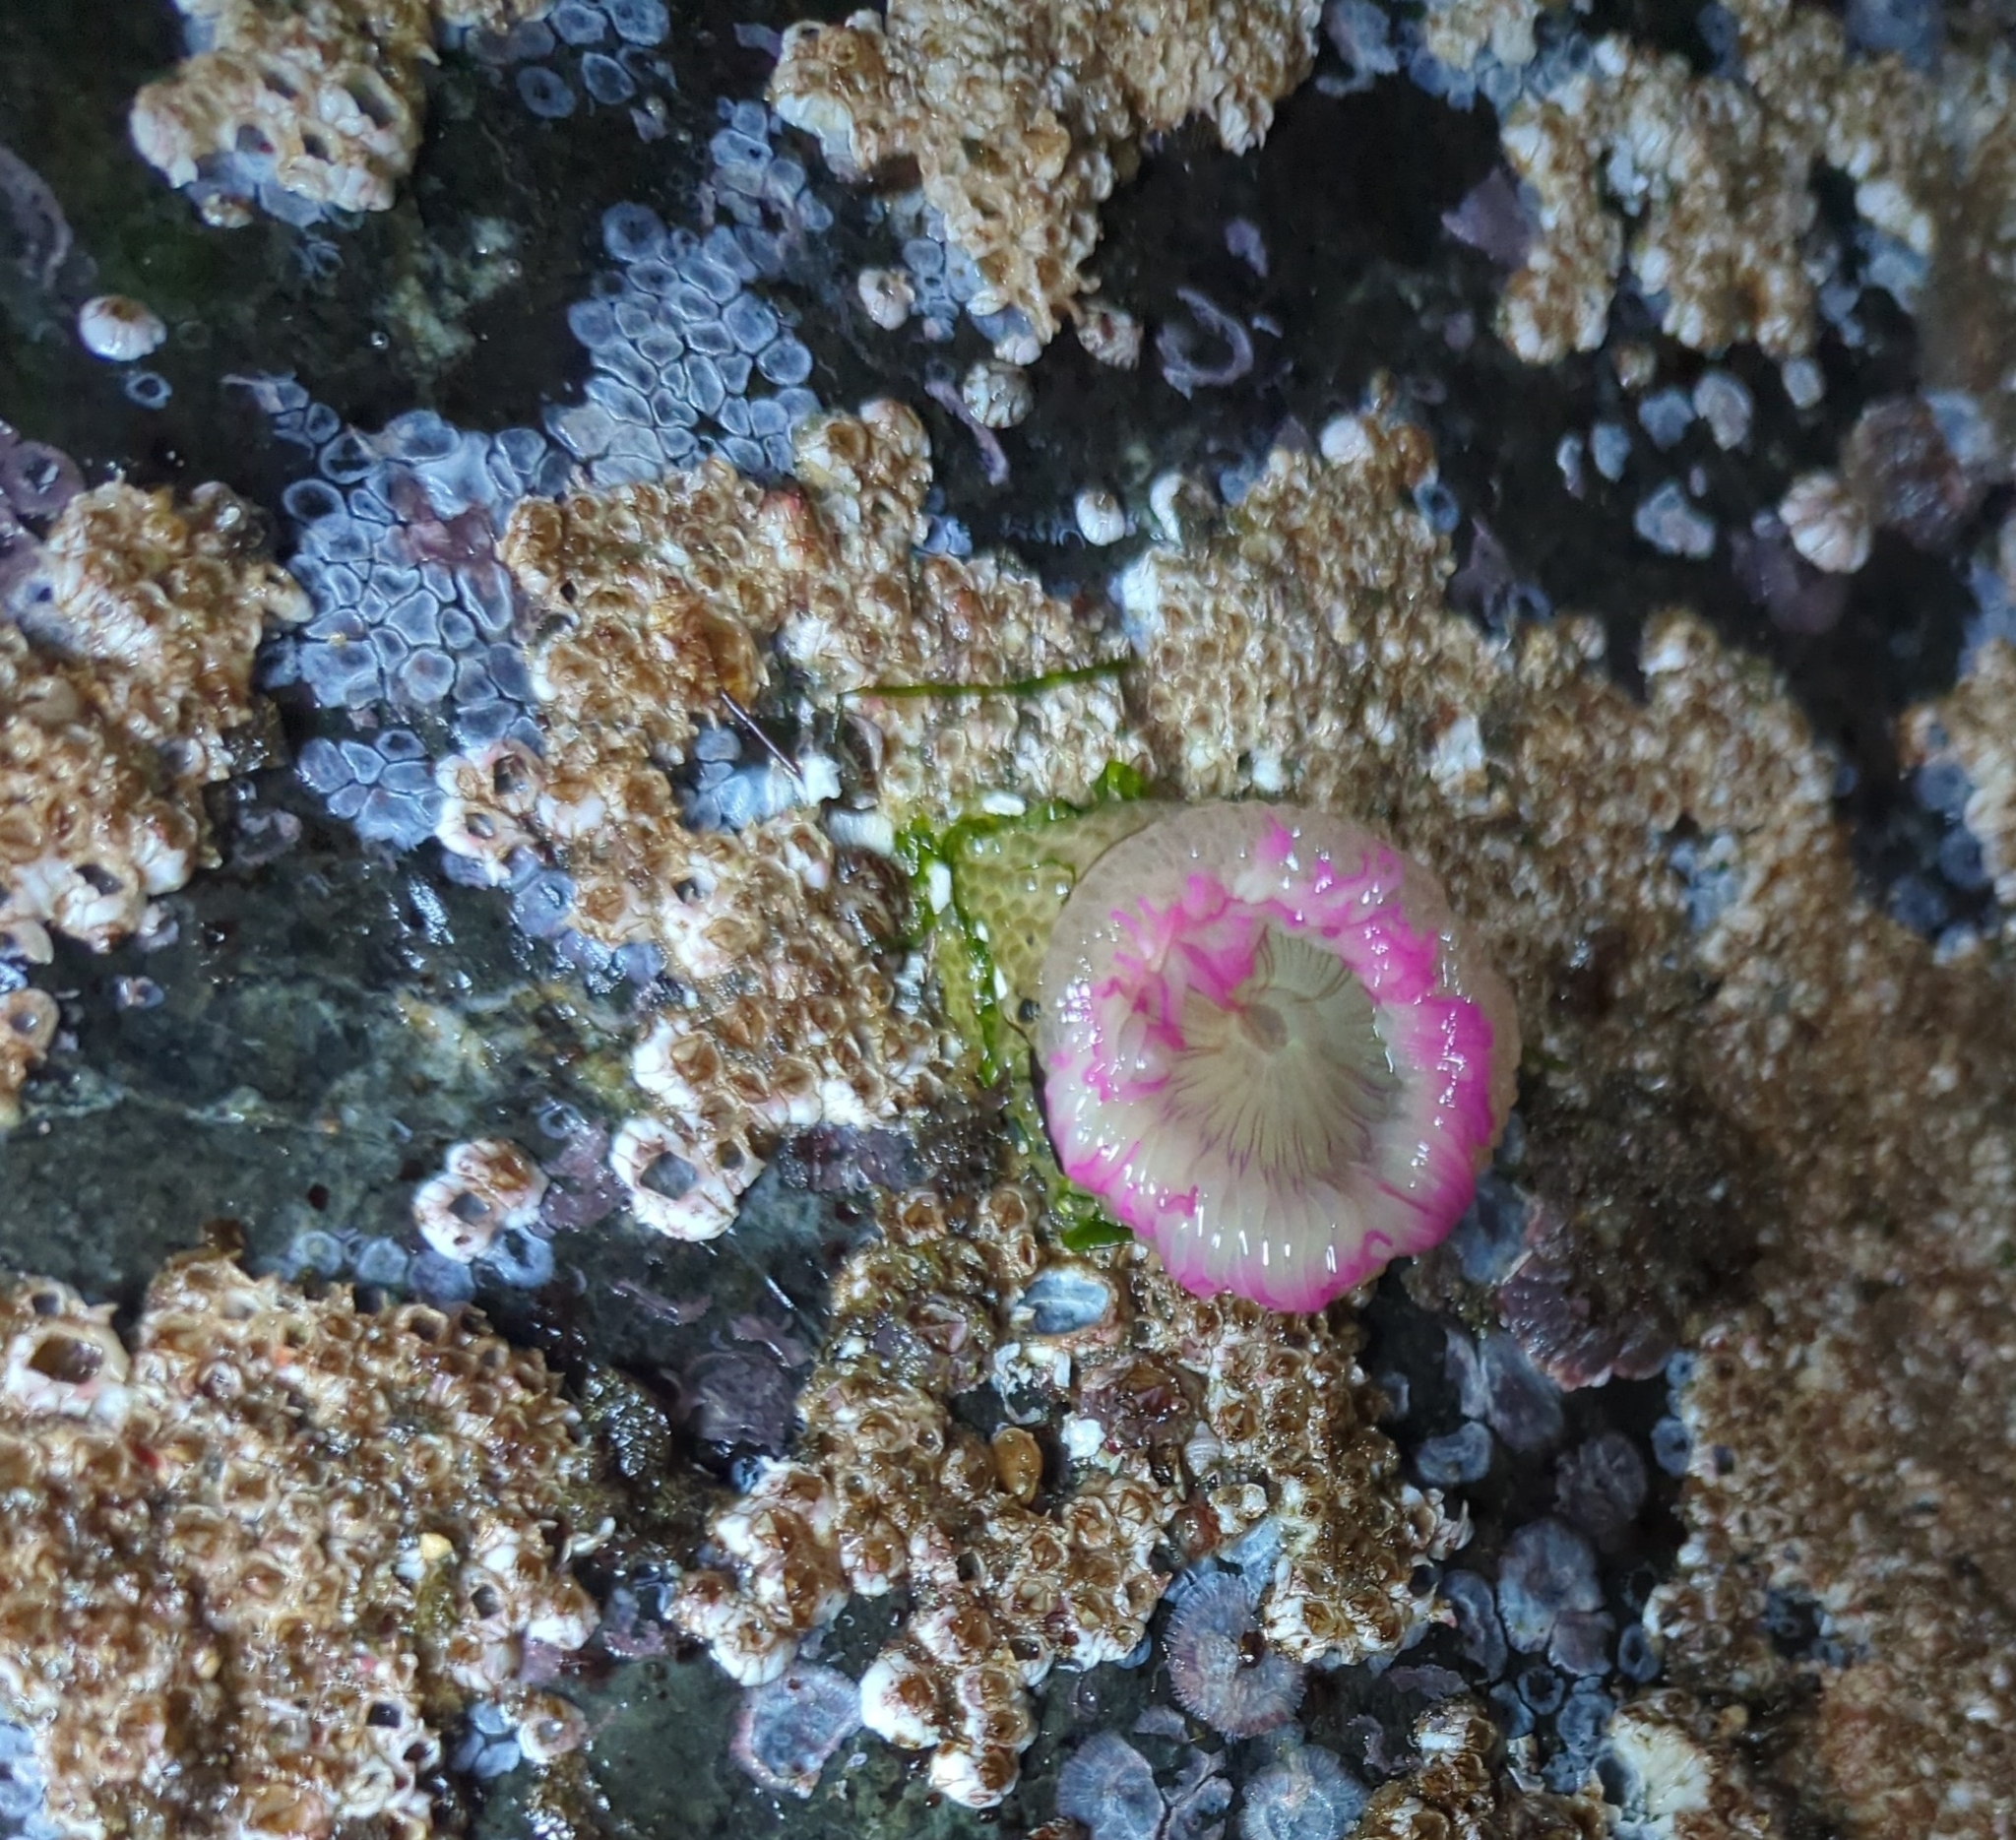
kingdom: Animalia
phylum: Cnidaria
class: Anthozoa
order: Actiniaria
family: Actiniidae
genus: Anthopleura
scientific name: Anthopleura elegantissima
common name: Clonal anemone
